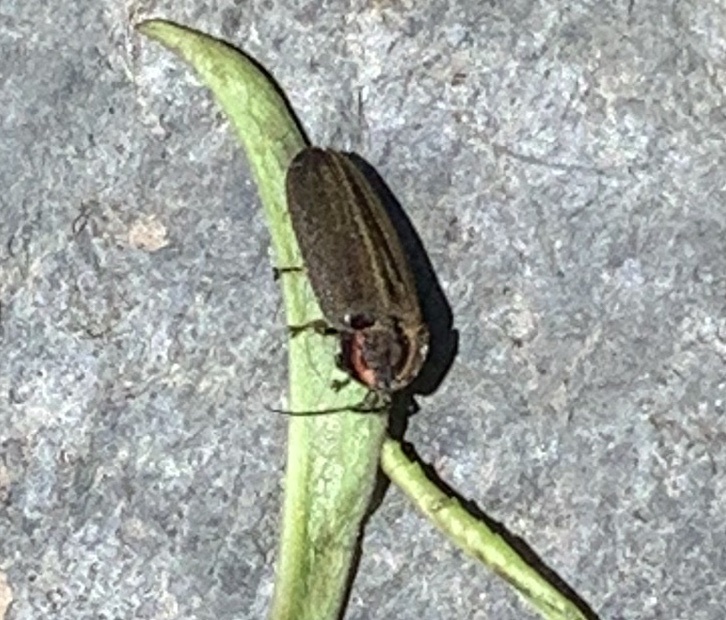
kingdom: Animalia
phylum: Arthropoda
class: Insecta
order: Coleoptera
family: Lampyridae
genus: Photinus
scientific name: Photinus corrusca
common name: Winter firefly
